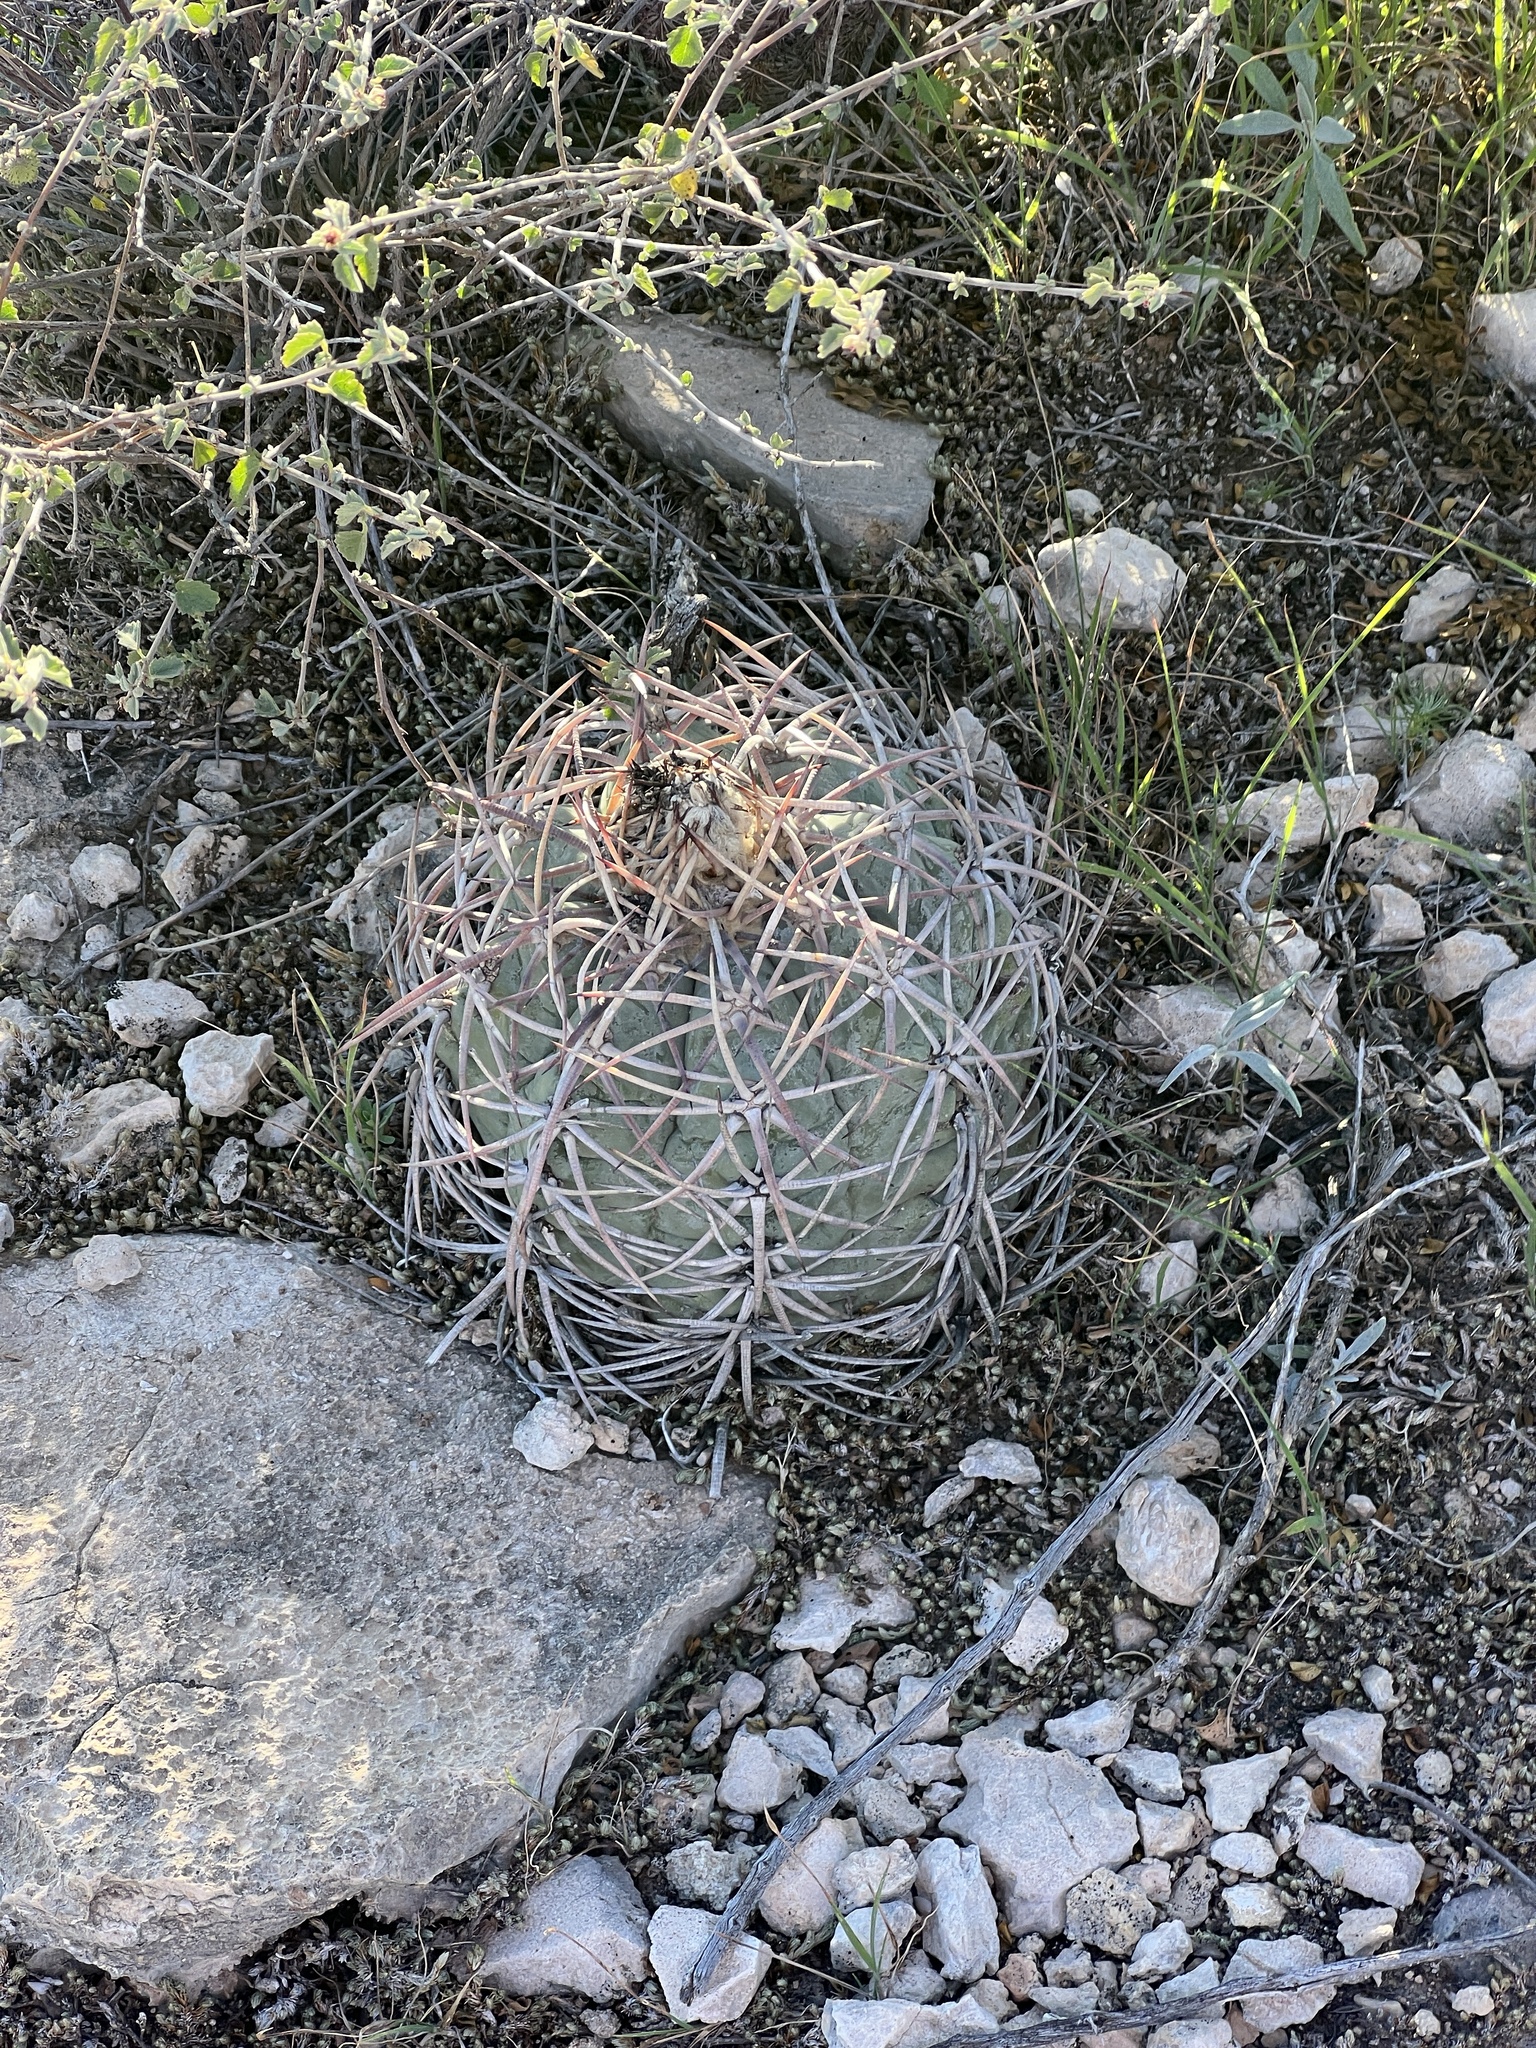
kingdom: Plantae
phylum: Tracheophyta
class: Magnoliopsida
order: Caryophyllales
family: Cactaceae
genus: Echinocactus
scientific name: Echinocactus horizonthalonius
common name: Devilshead
